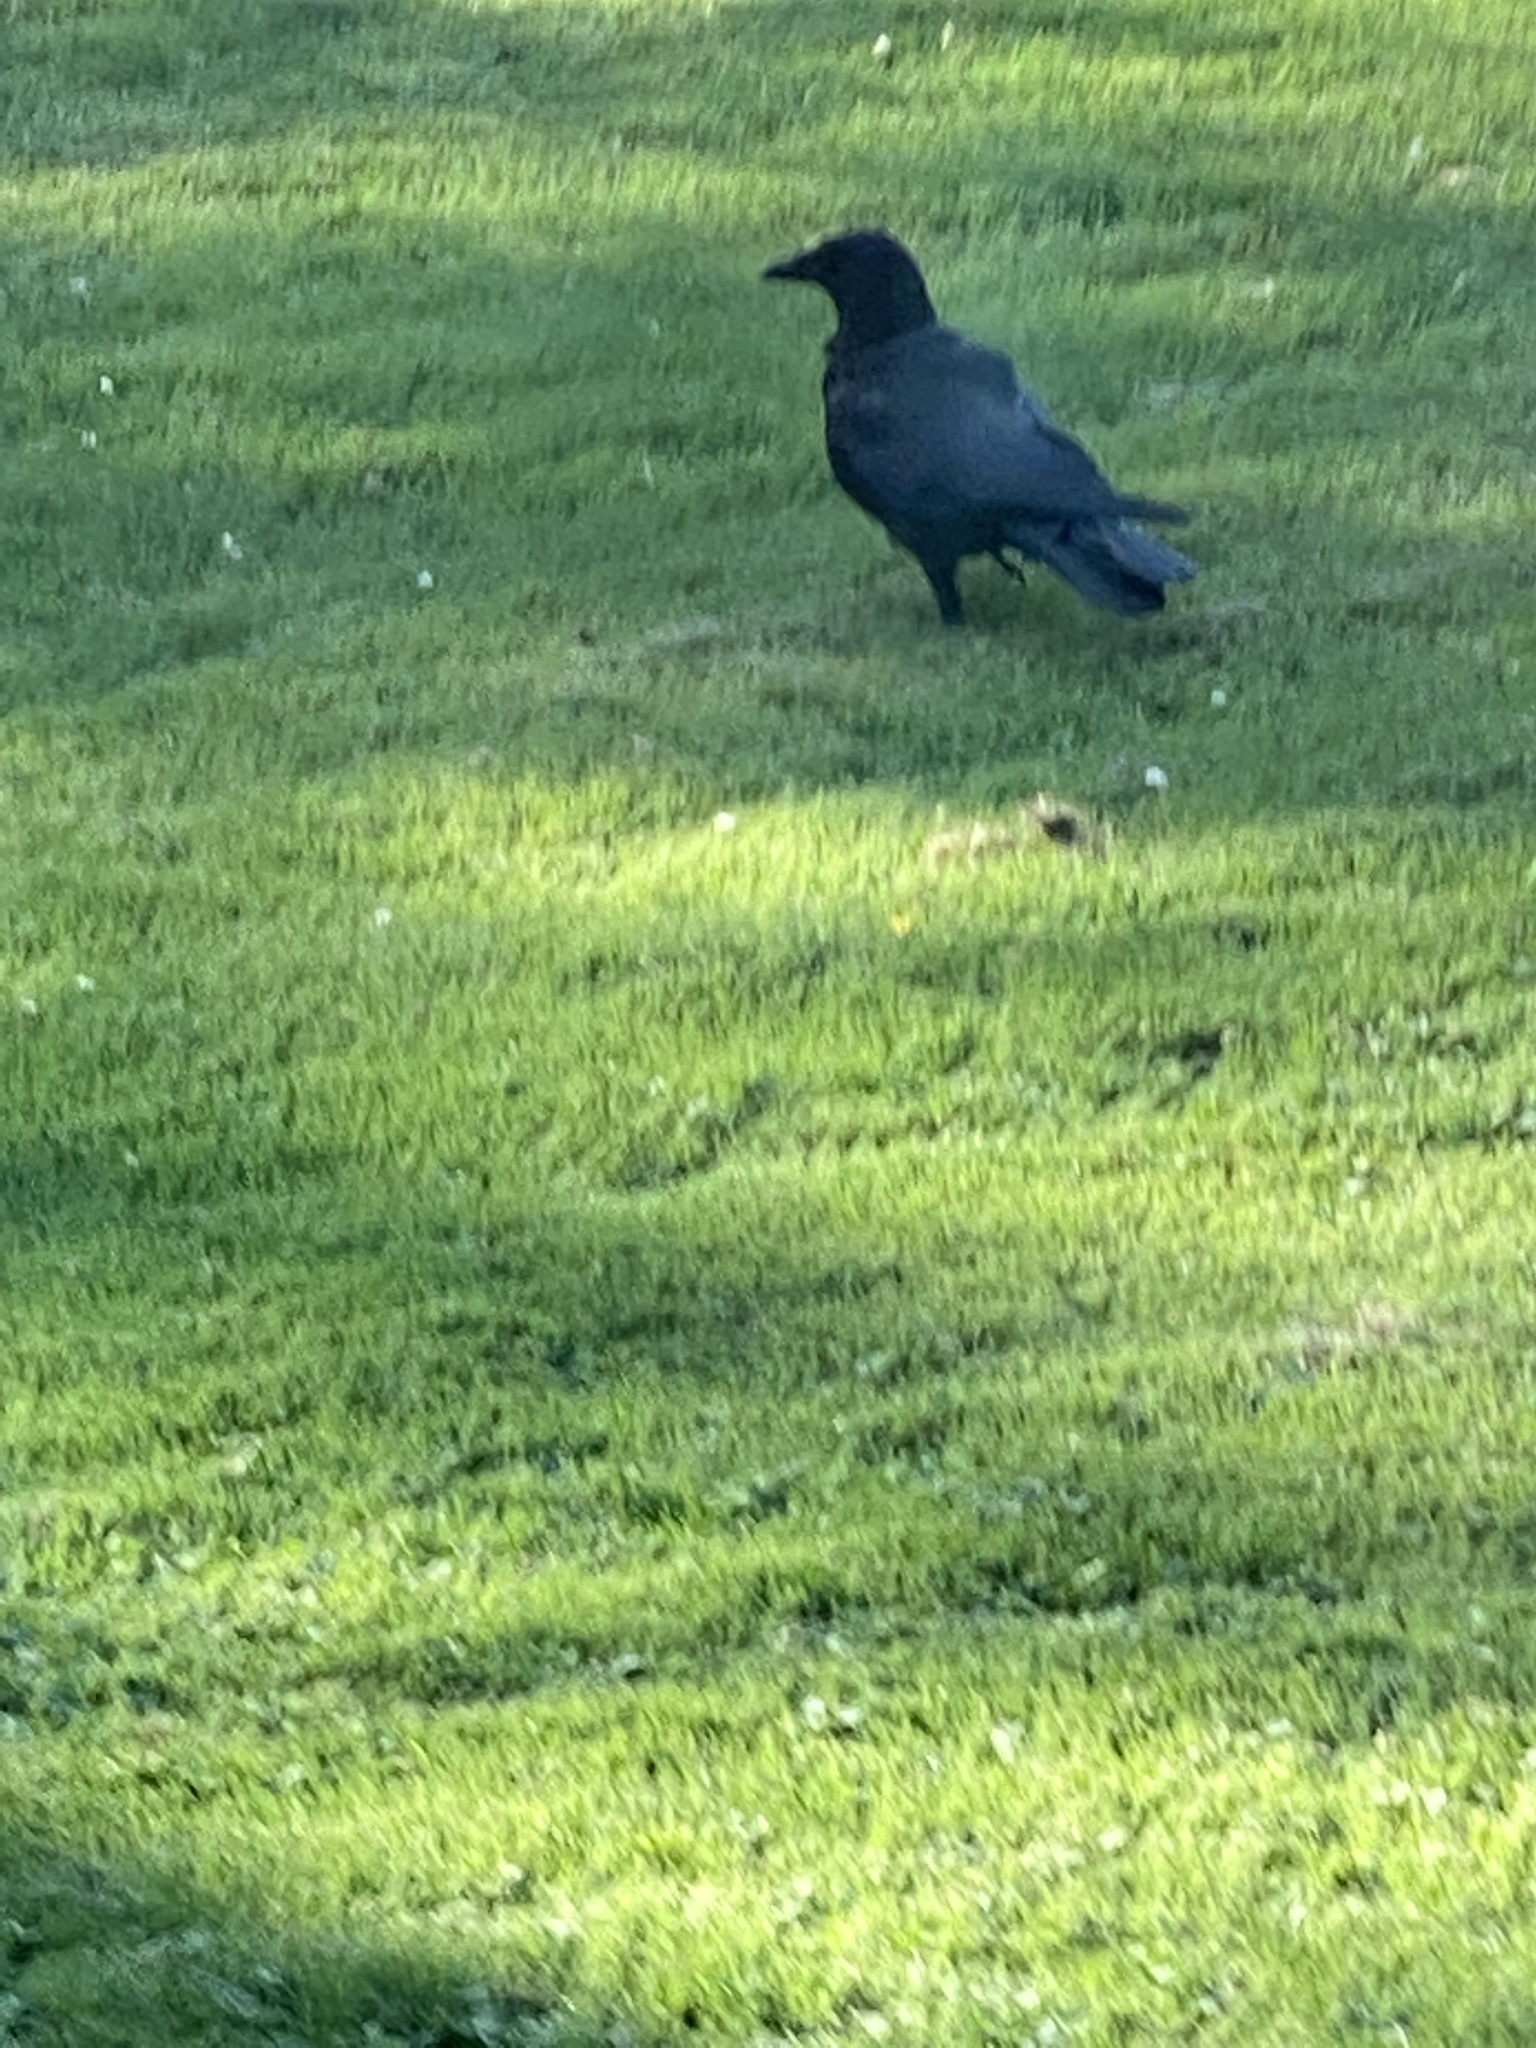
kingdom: Animalia
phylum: Chordata
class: Aves
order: Passeriformes
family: Corvidae
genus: Corvus
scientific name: Corvus brachyrhynchos
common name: American crow
